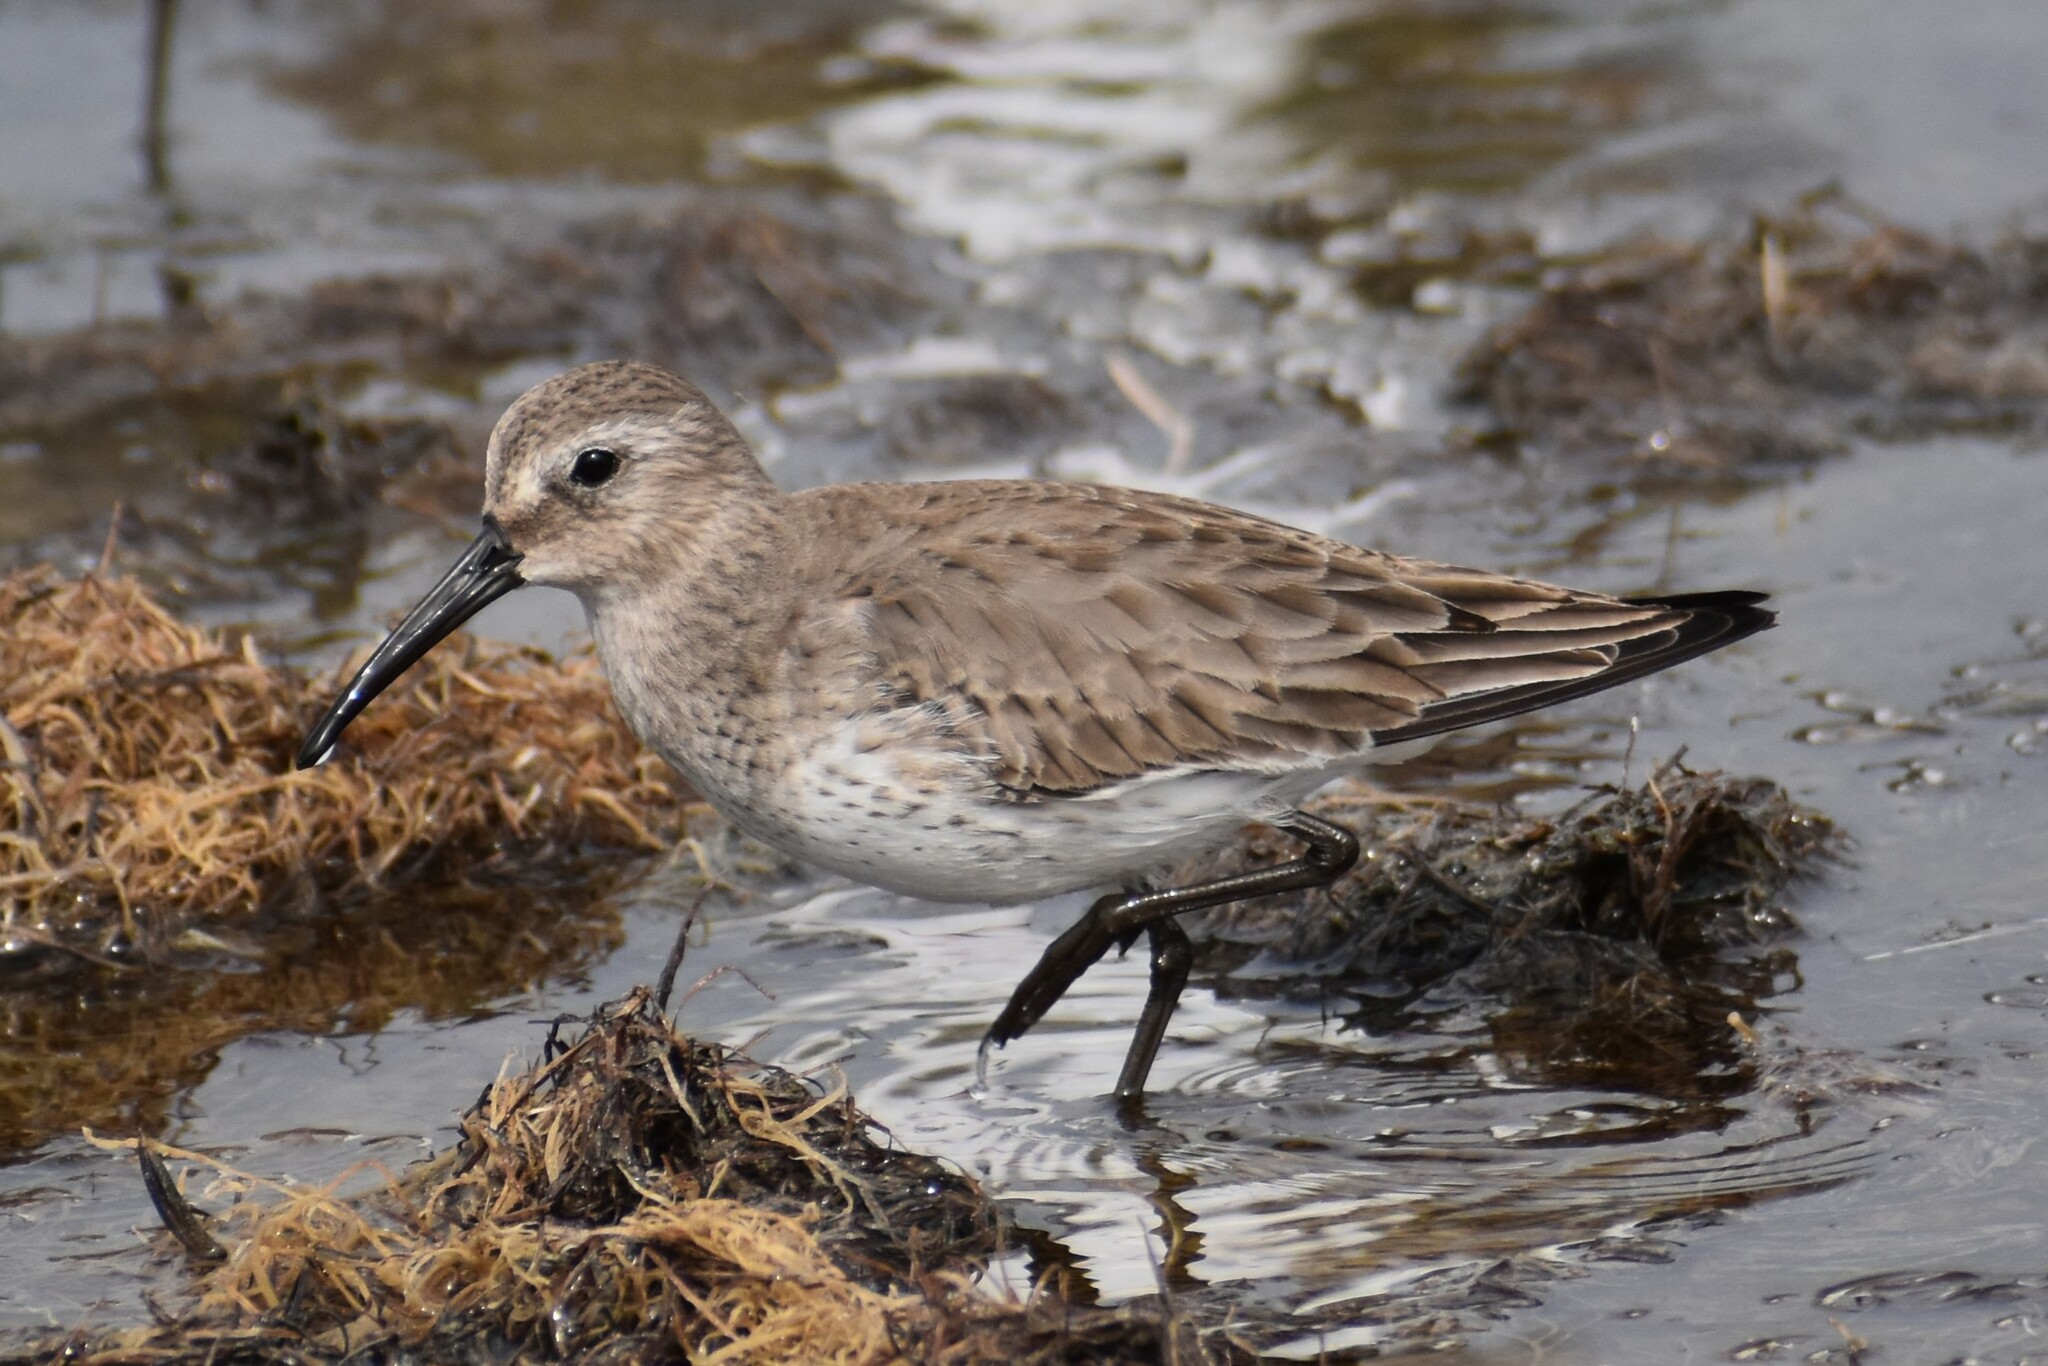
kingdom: Animalia
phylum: Chordata
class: Aves
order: Charadriiformes
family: Scolopacidae
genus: Calidris
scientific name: Calidris alpina
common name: Dunlin
